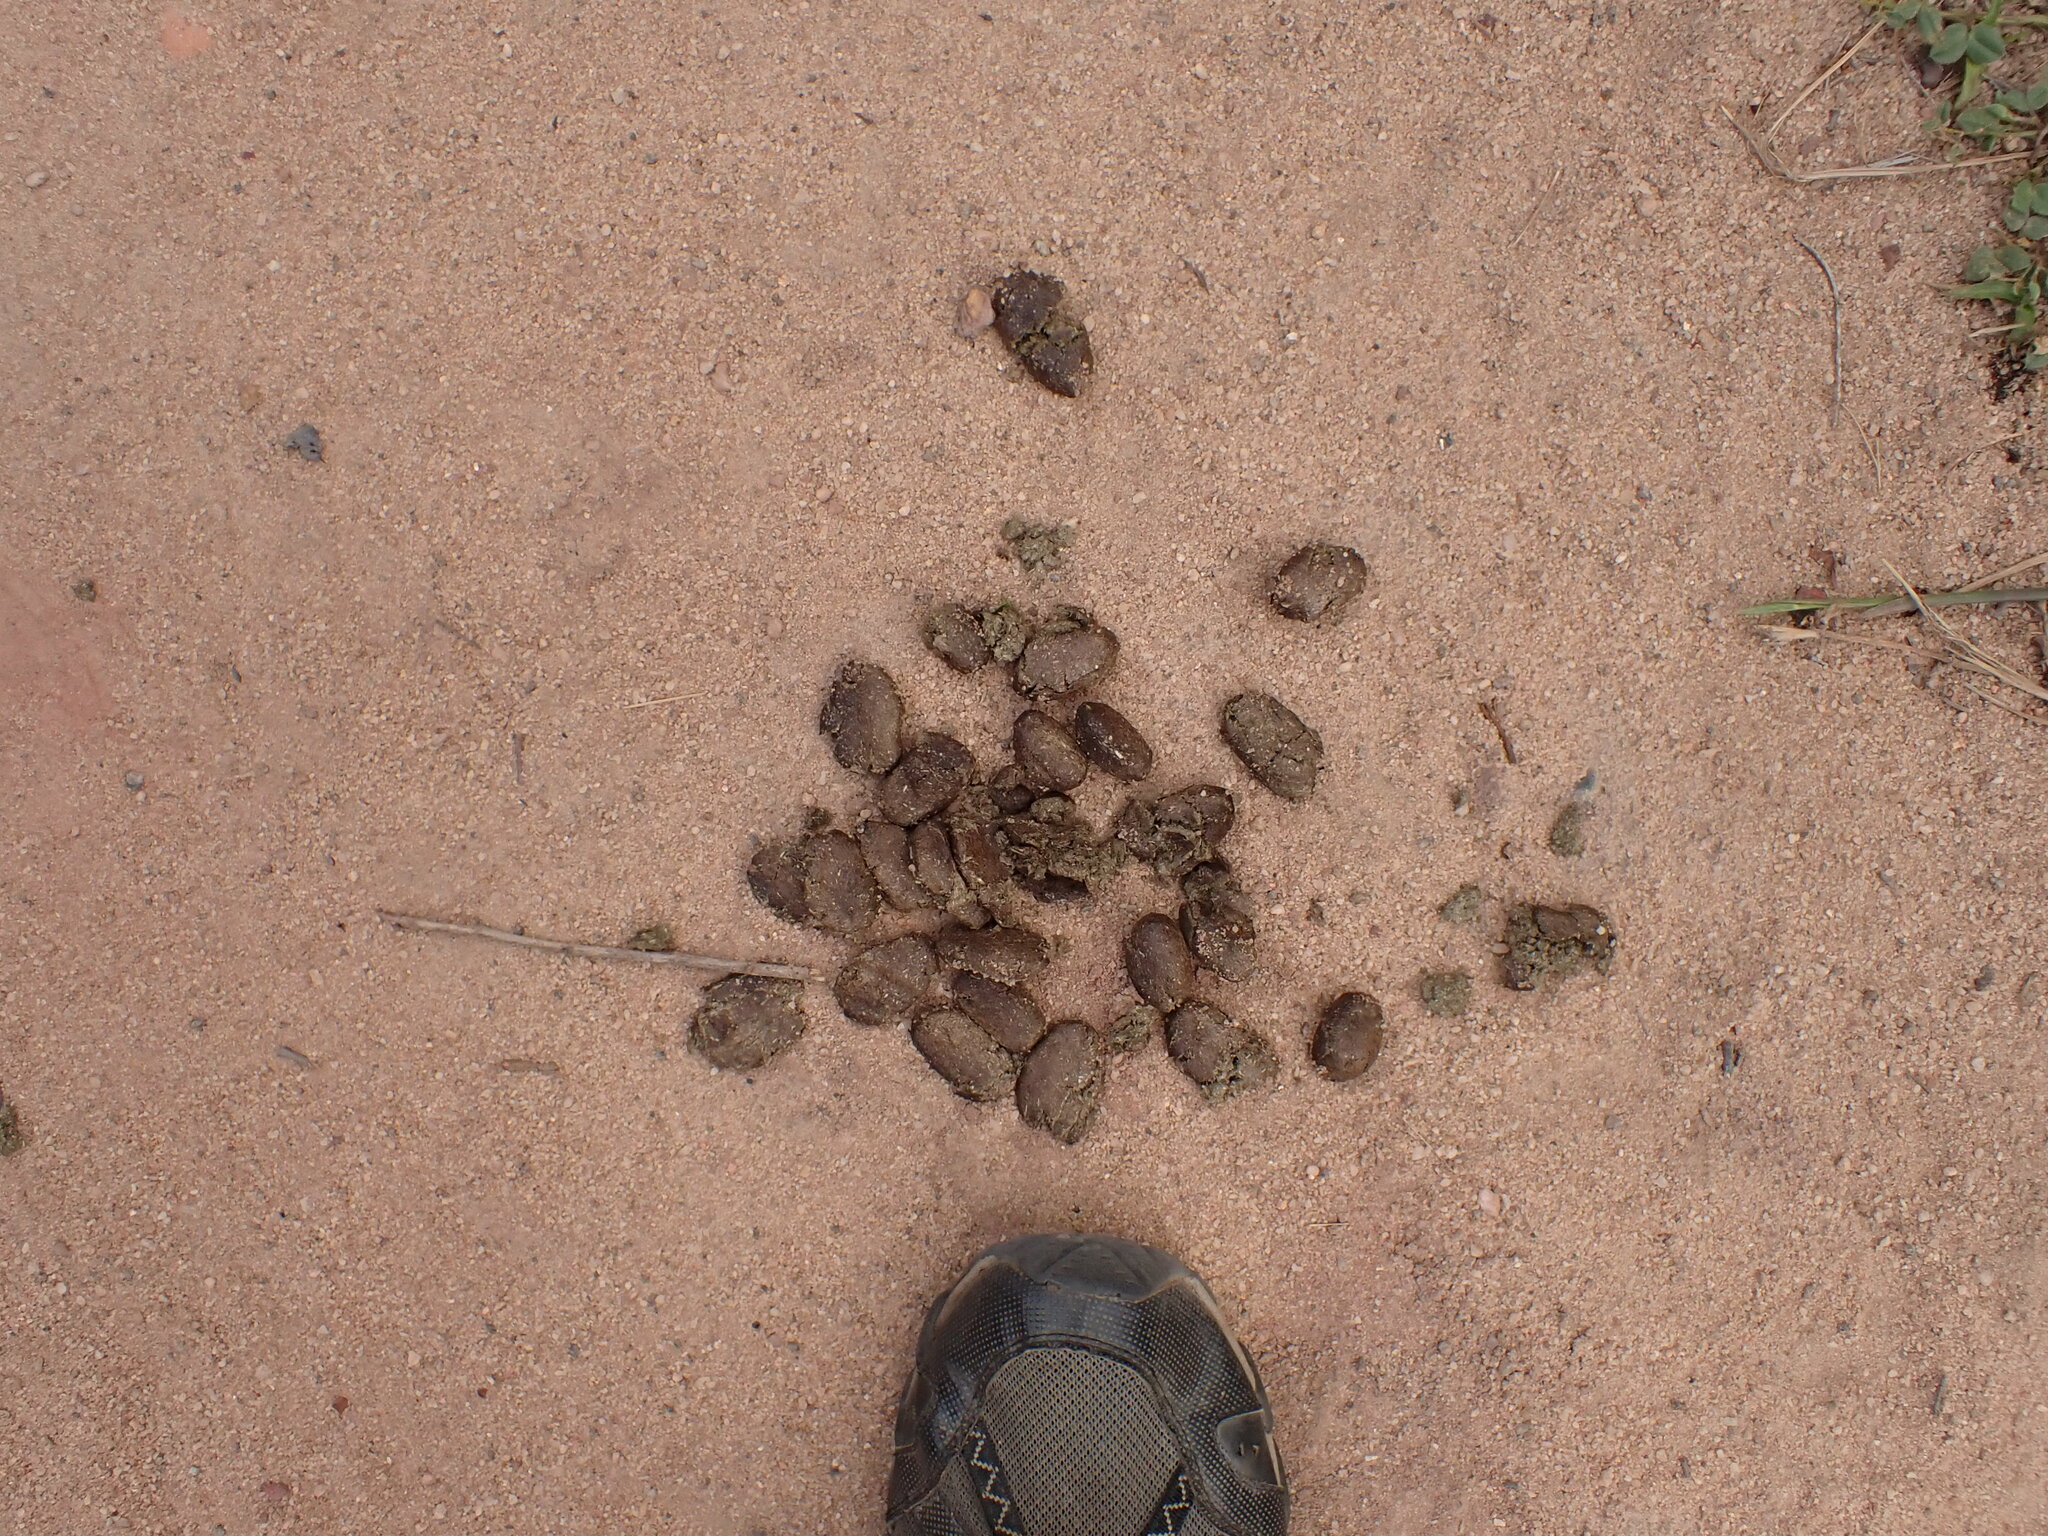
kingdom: Animalia
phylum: Chordata
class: Mammalia
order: Rodentia
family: Caviidae
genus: Hydrochoerus
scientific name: Hydrochoerus hydrochaeris
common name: Capybara
